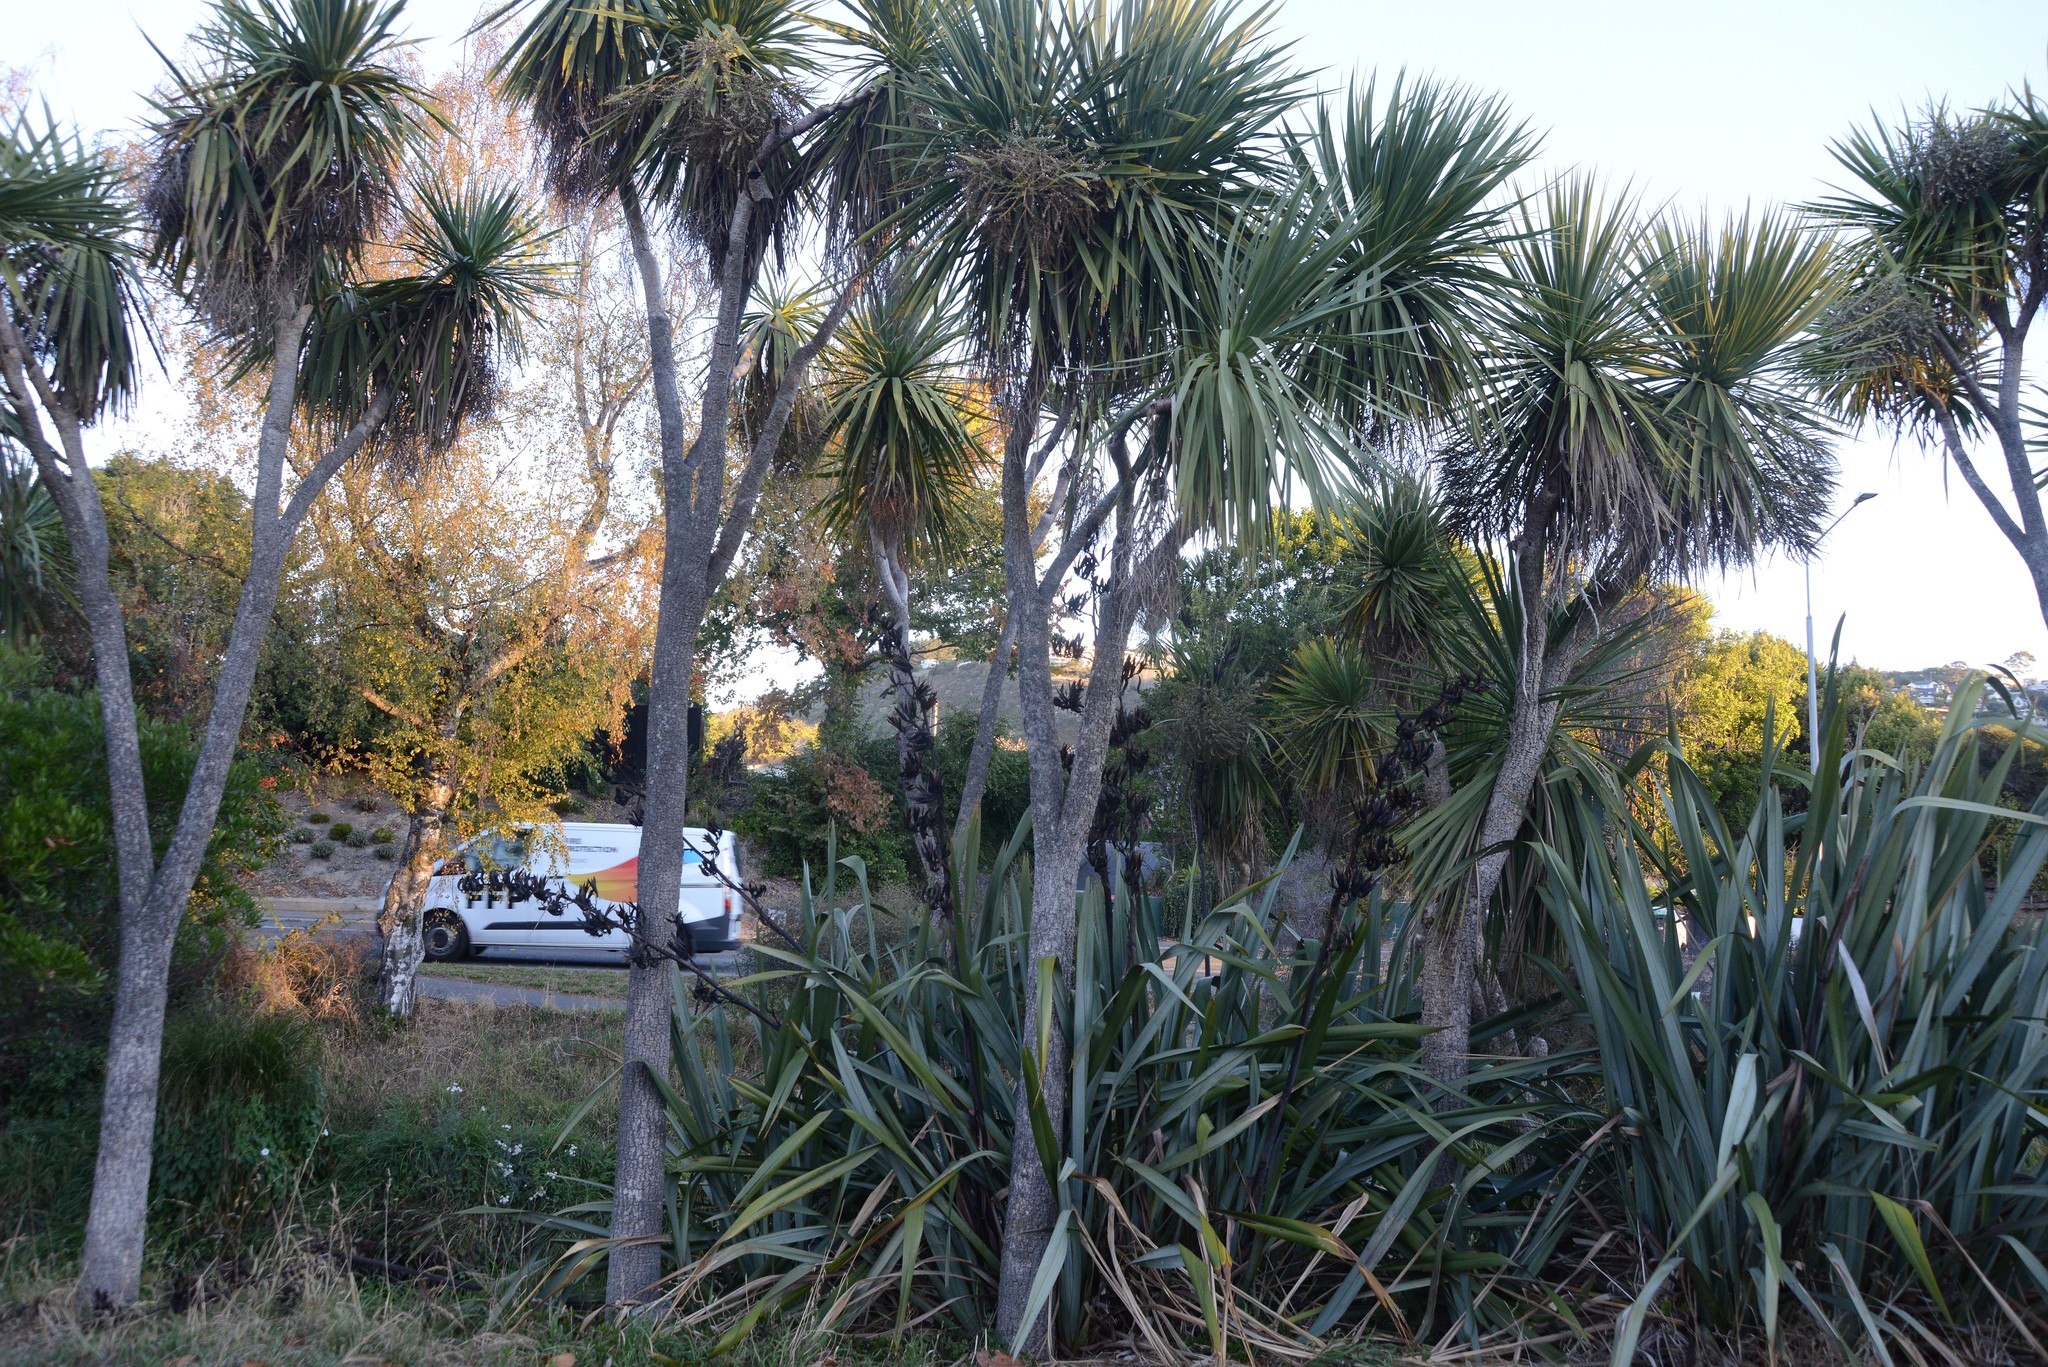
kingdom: Plantae
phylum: Tracheophyta
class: Liliopsida
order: Asparagales
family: Asparagaceae
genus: Cordyline
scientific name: Cordyline australis
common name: Cabbage-palm
